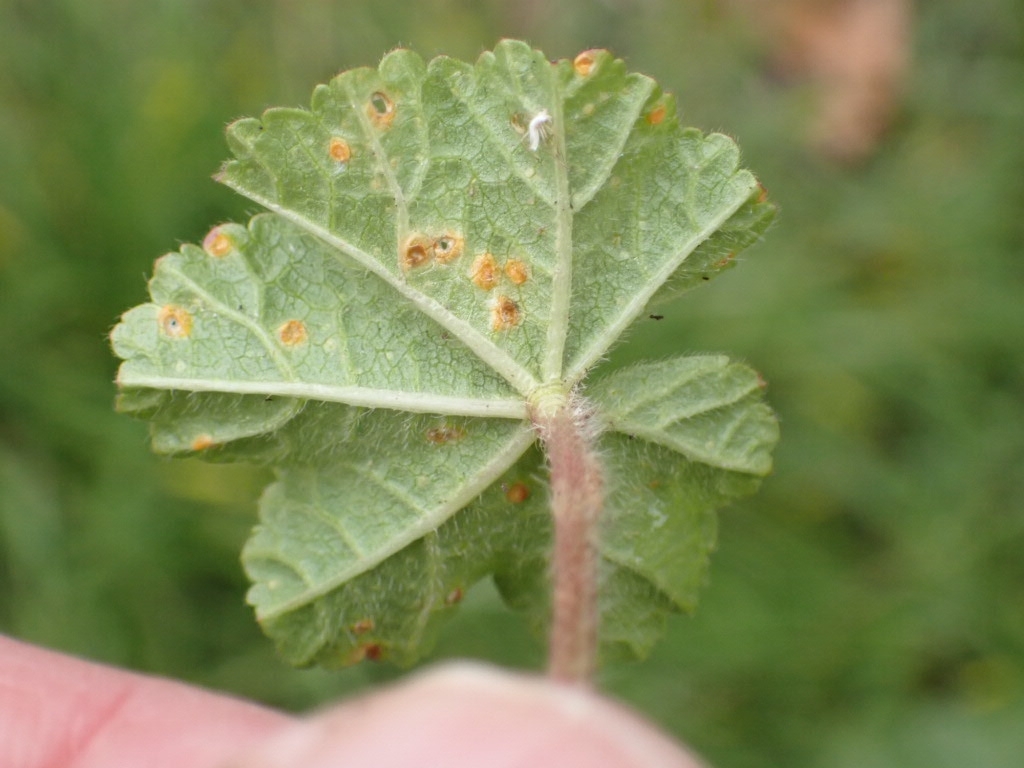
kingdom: Fungi
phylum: Basidiomycota
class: Pucciniomycetes
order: Pucciniales
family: Pucciniaceae
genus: Puccinia
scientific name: Puccinia malvacearum
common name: Hollyhock rust
